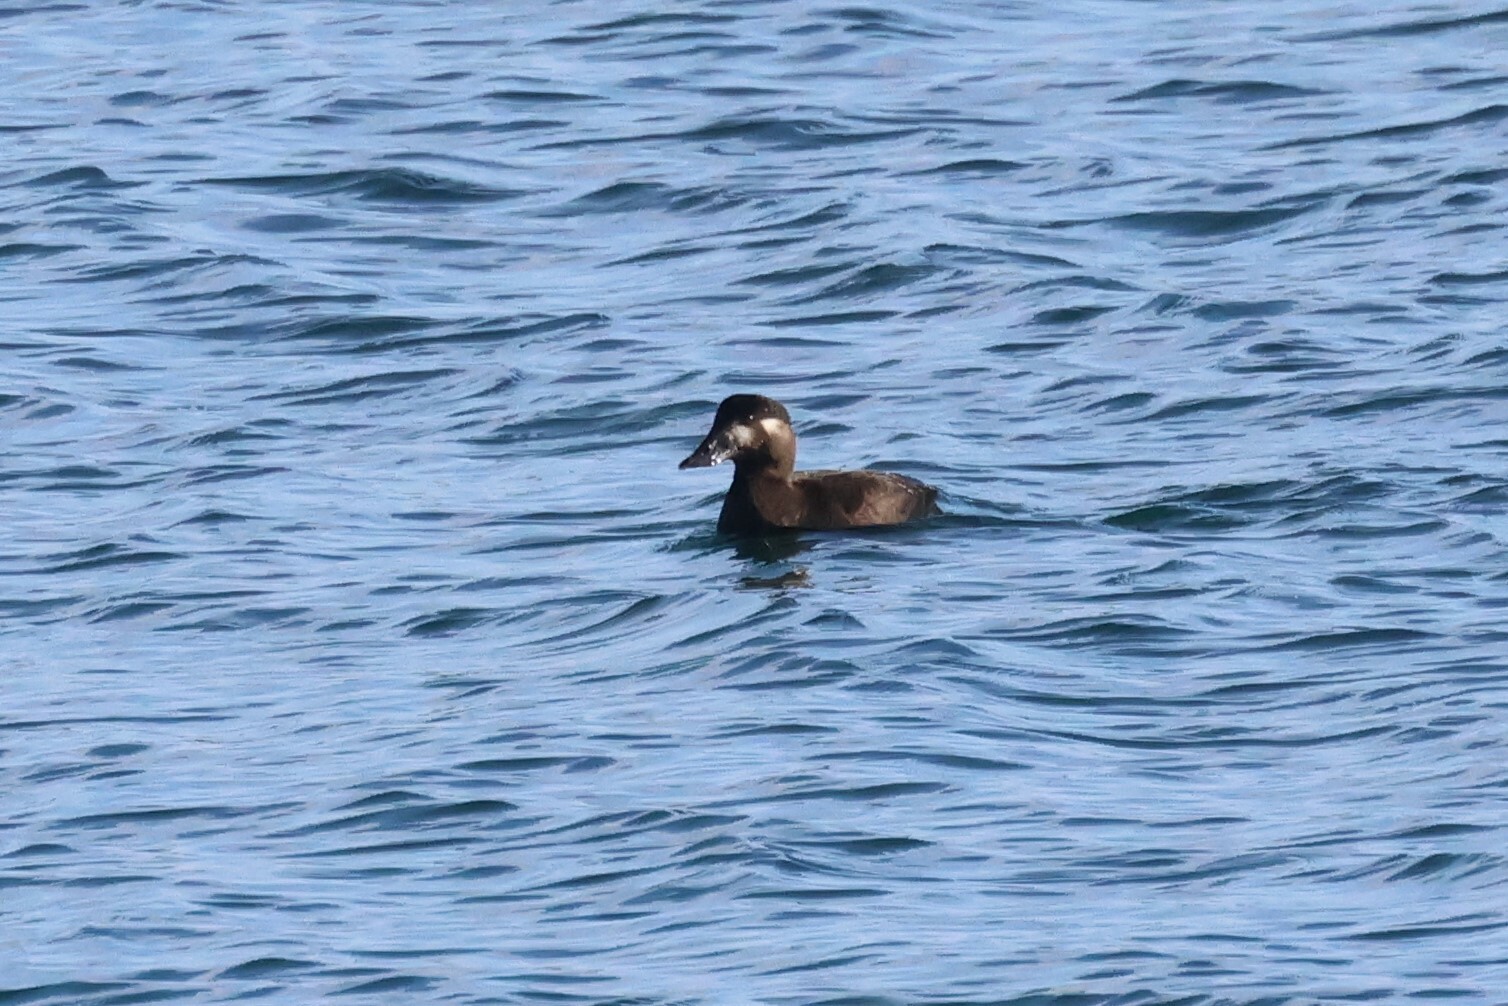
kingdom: Animalia
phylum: Chordata
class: Aves
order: Anseriformes
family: Anatidae
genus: Melanitta
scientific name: Melanitta perspicillata
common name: Surf scoter
